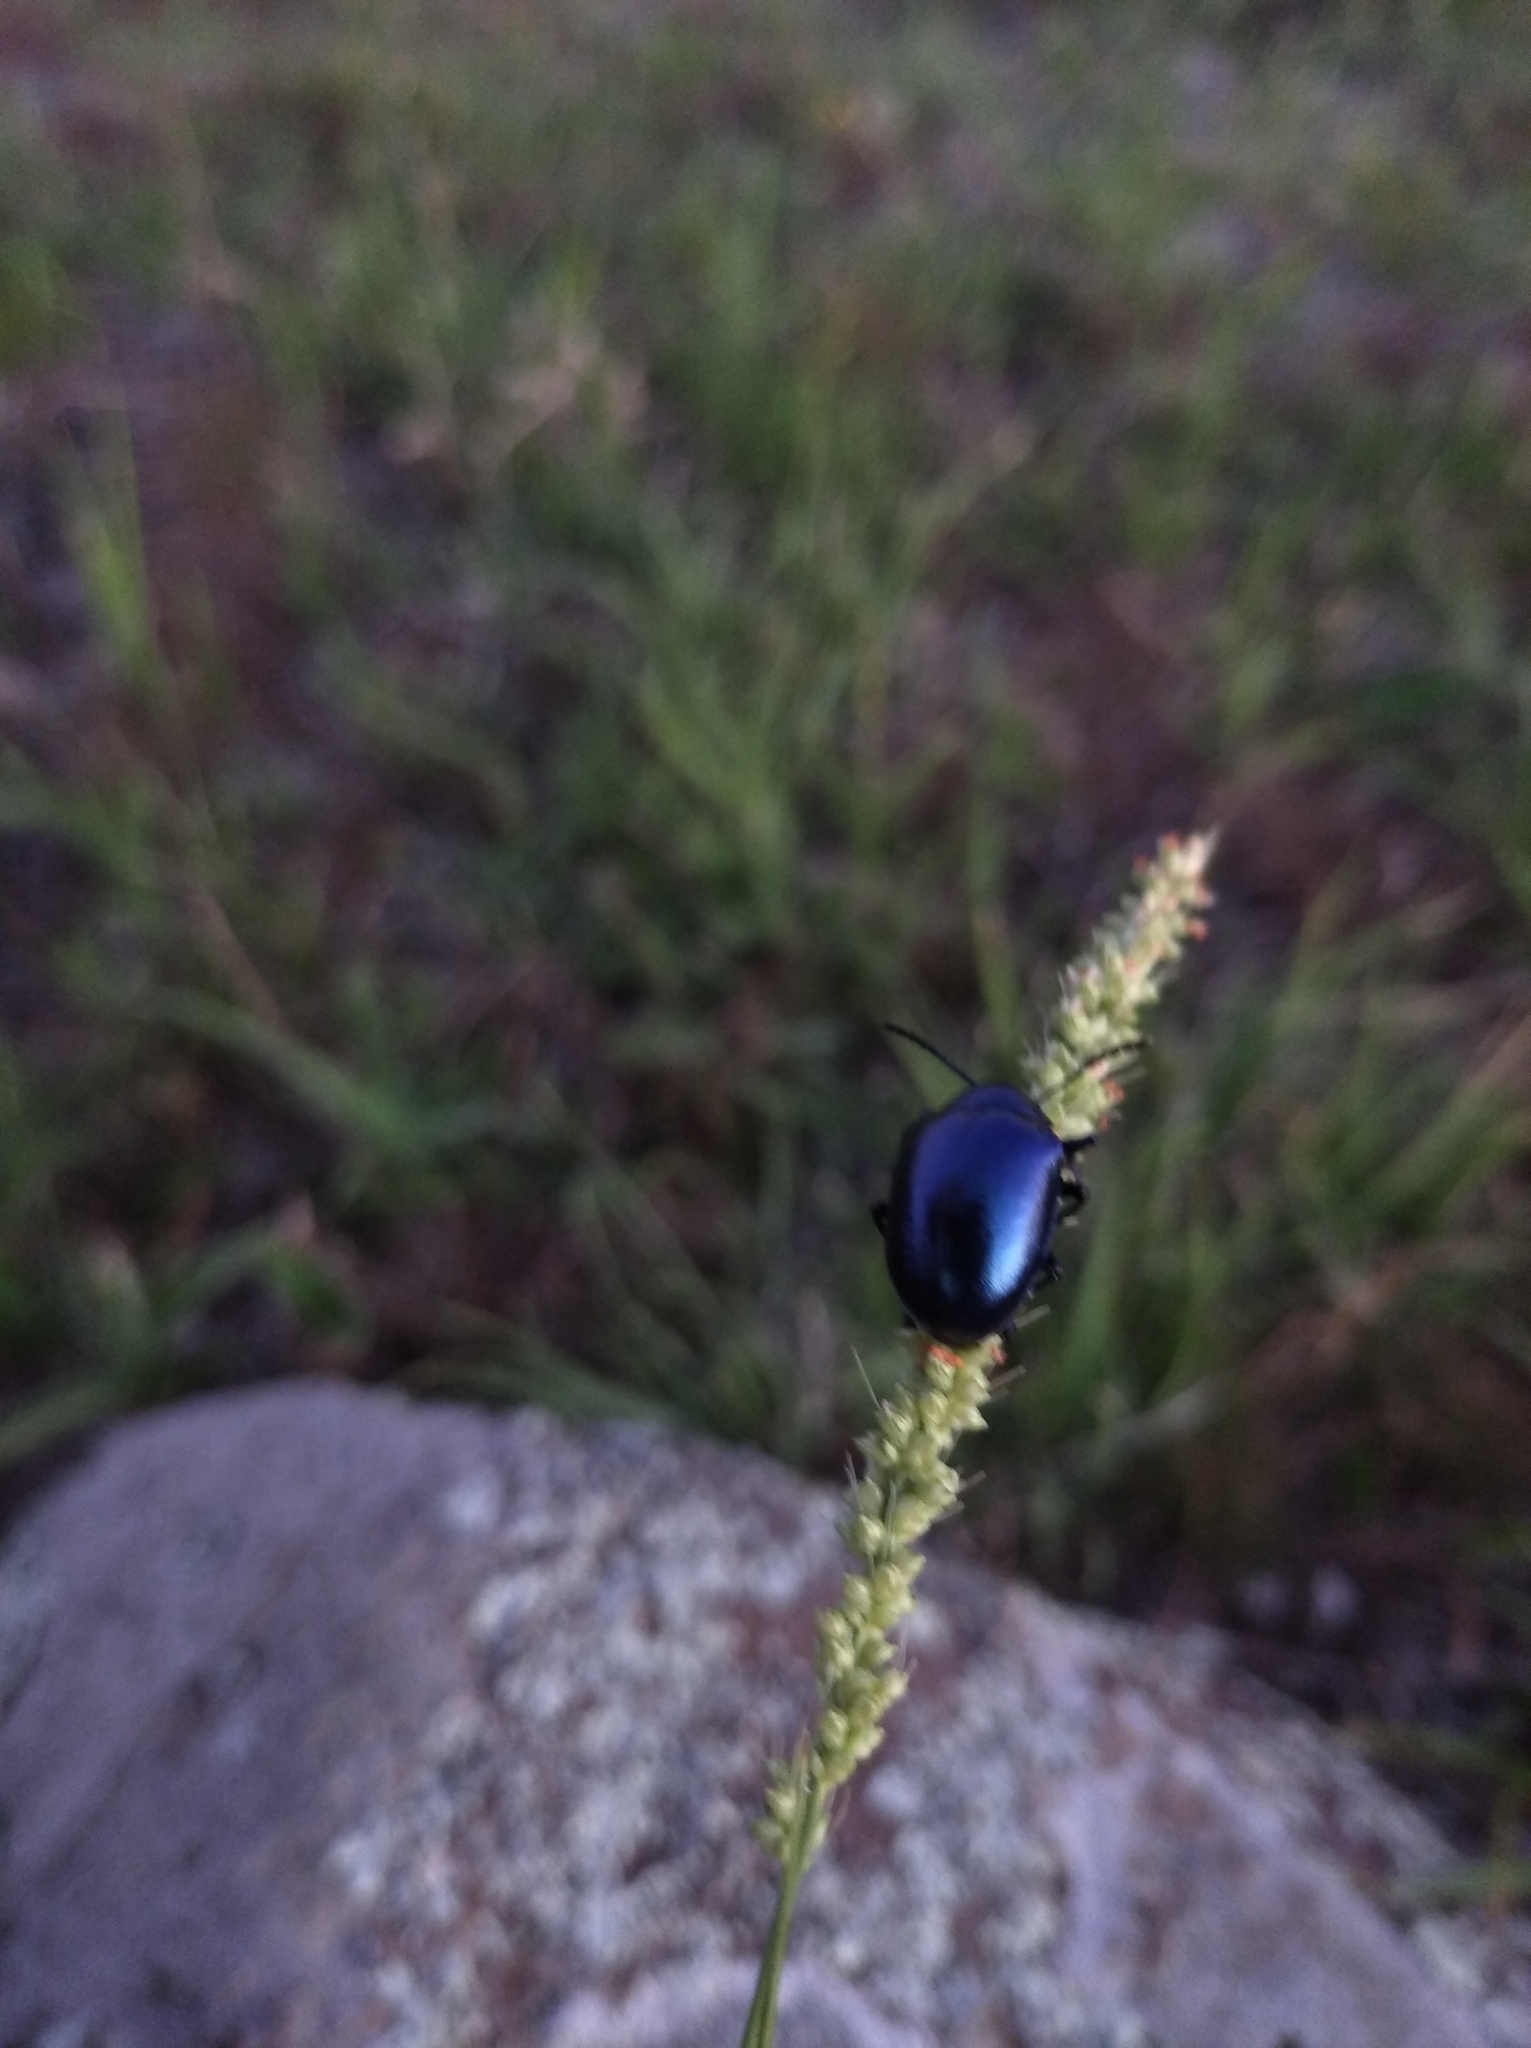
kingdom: Animalia
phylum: Arthropoda
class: Insecta
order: Coleoptera
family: Chrysomelidae
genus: Eumolpus
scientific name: Eumolpus
